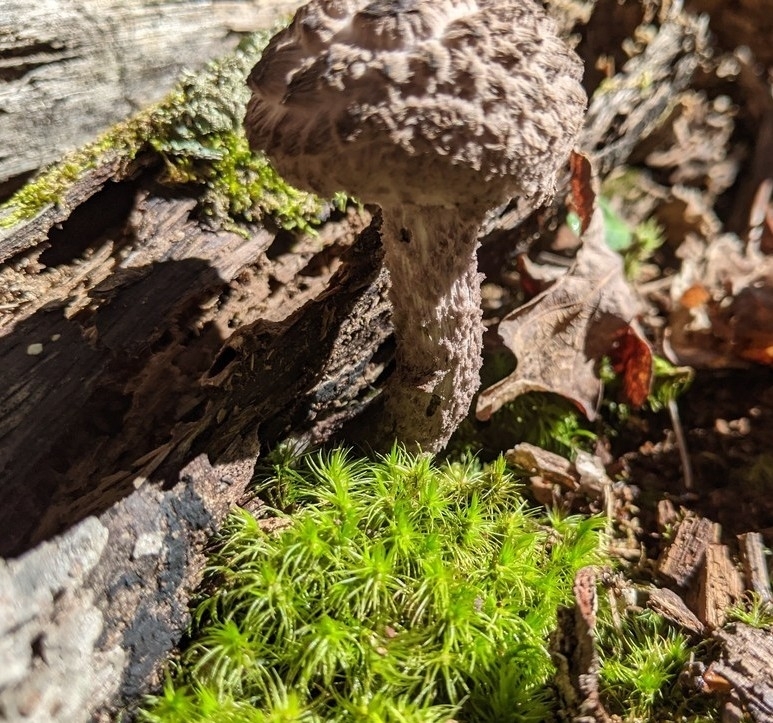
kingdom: Fungi
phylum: Basidiomycota
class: Agaricomycetes
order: Boletales
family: Boletaceae
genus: Strobilomyces
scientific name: Strobilomyces strobilaceus
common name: Old man of the woods
